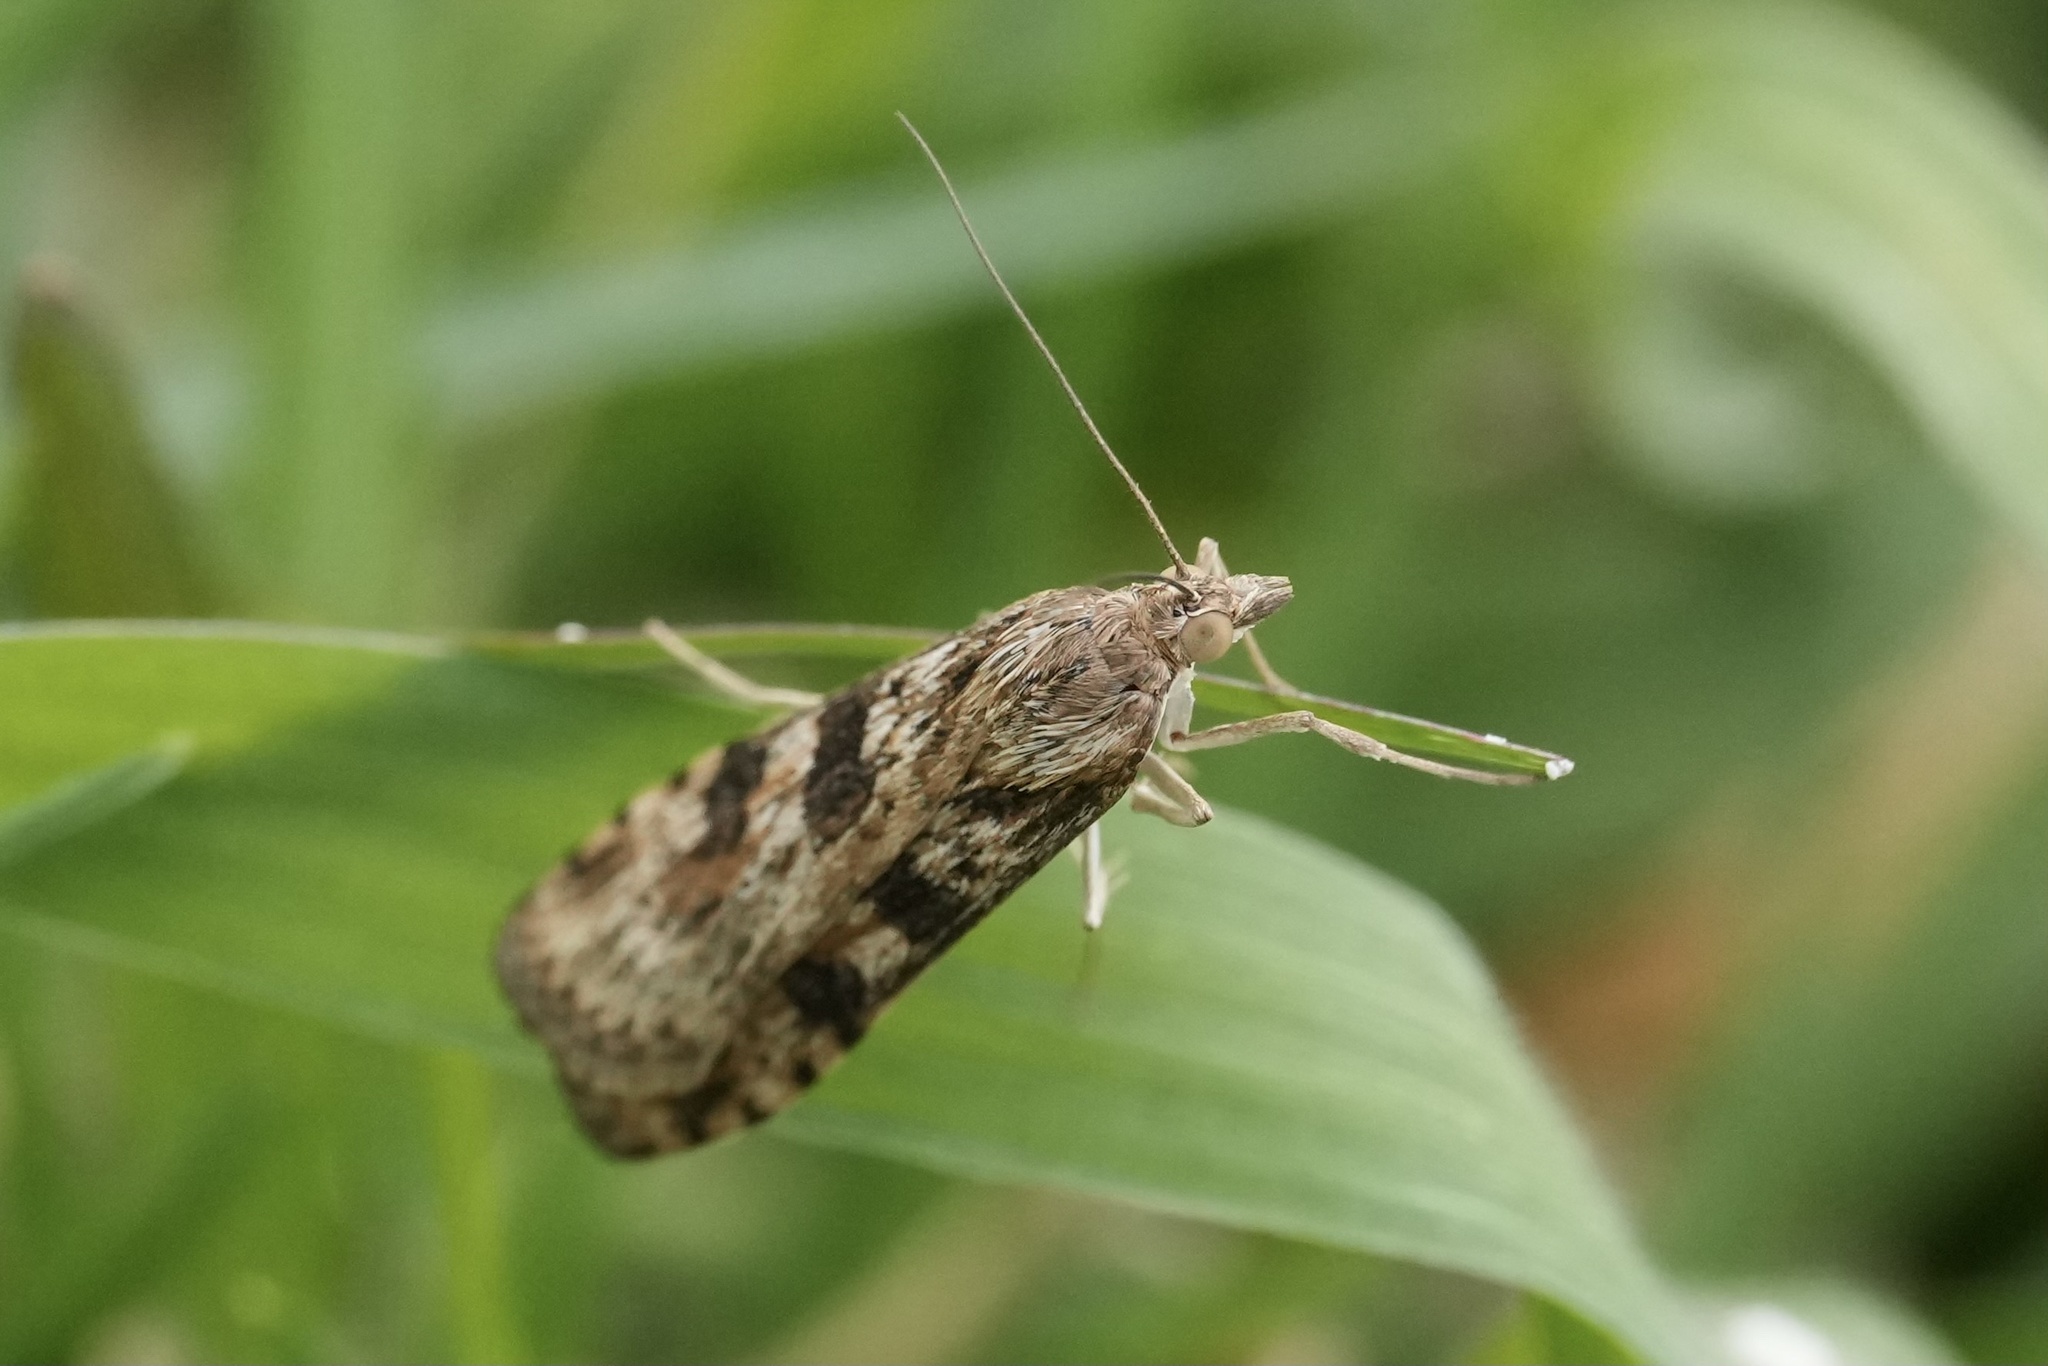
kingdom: Animalia
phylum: Arthropoda
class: Insecta
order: Lepidoptera
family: Crambidae
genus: Nomophila
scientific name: Nomophila nearctica
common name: American rush veneer
